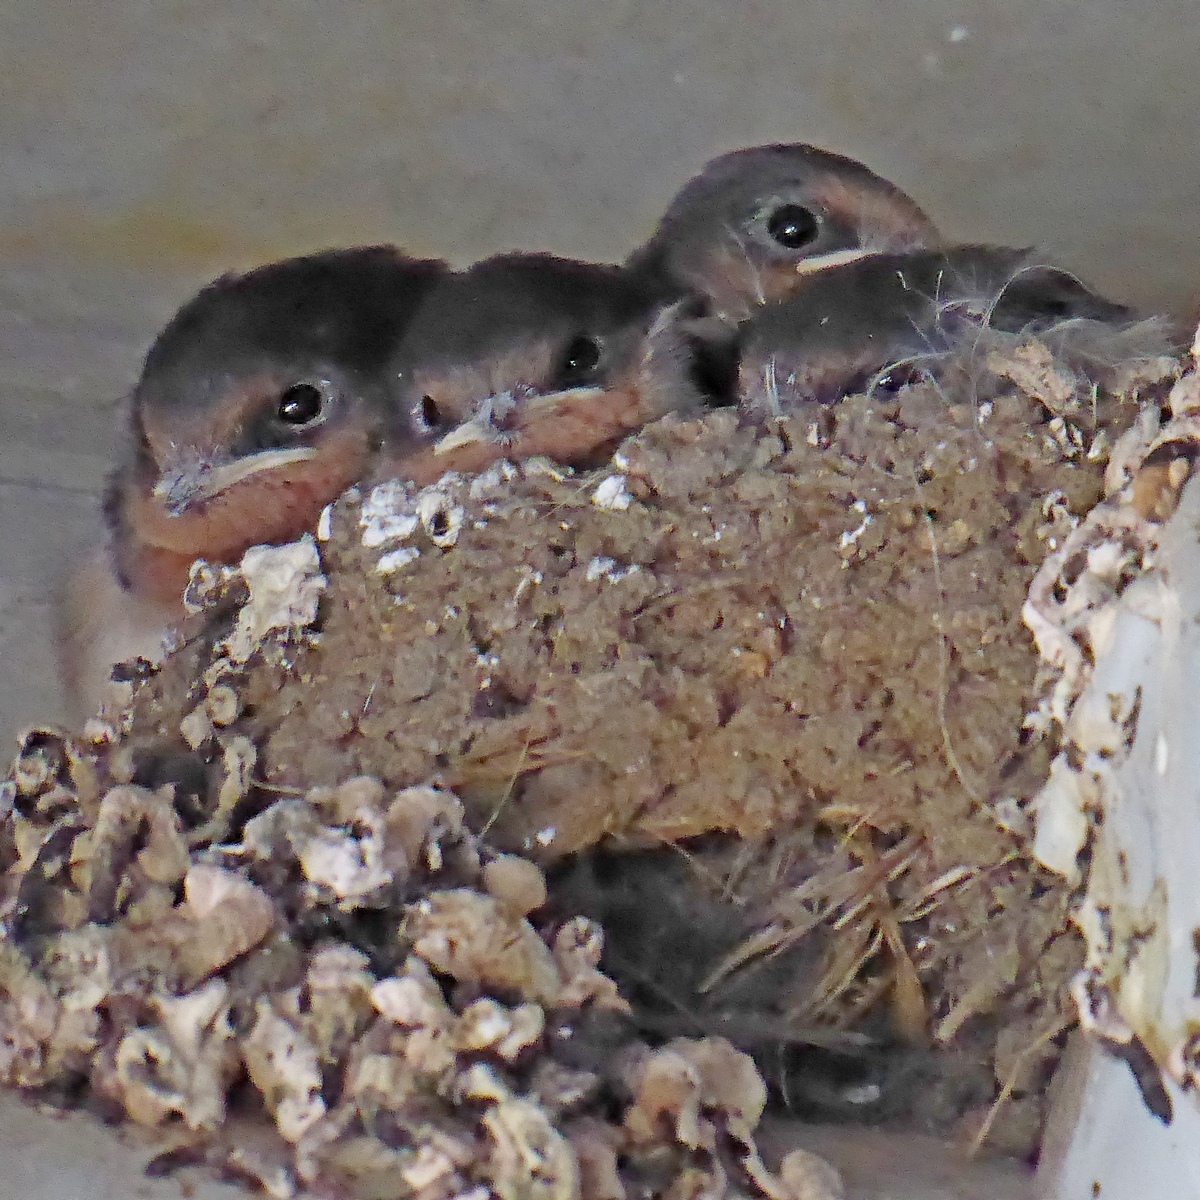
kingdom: Animalia
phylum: Chordata
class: Aves
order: Passeriformes
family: Hirundinidae
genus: Hirundo
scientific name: Hirundo neoxena
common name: Welcome swallow
